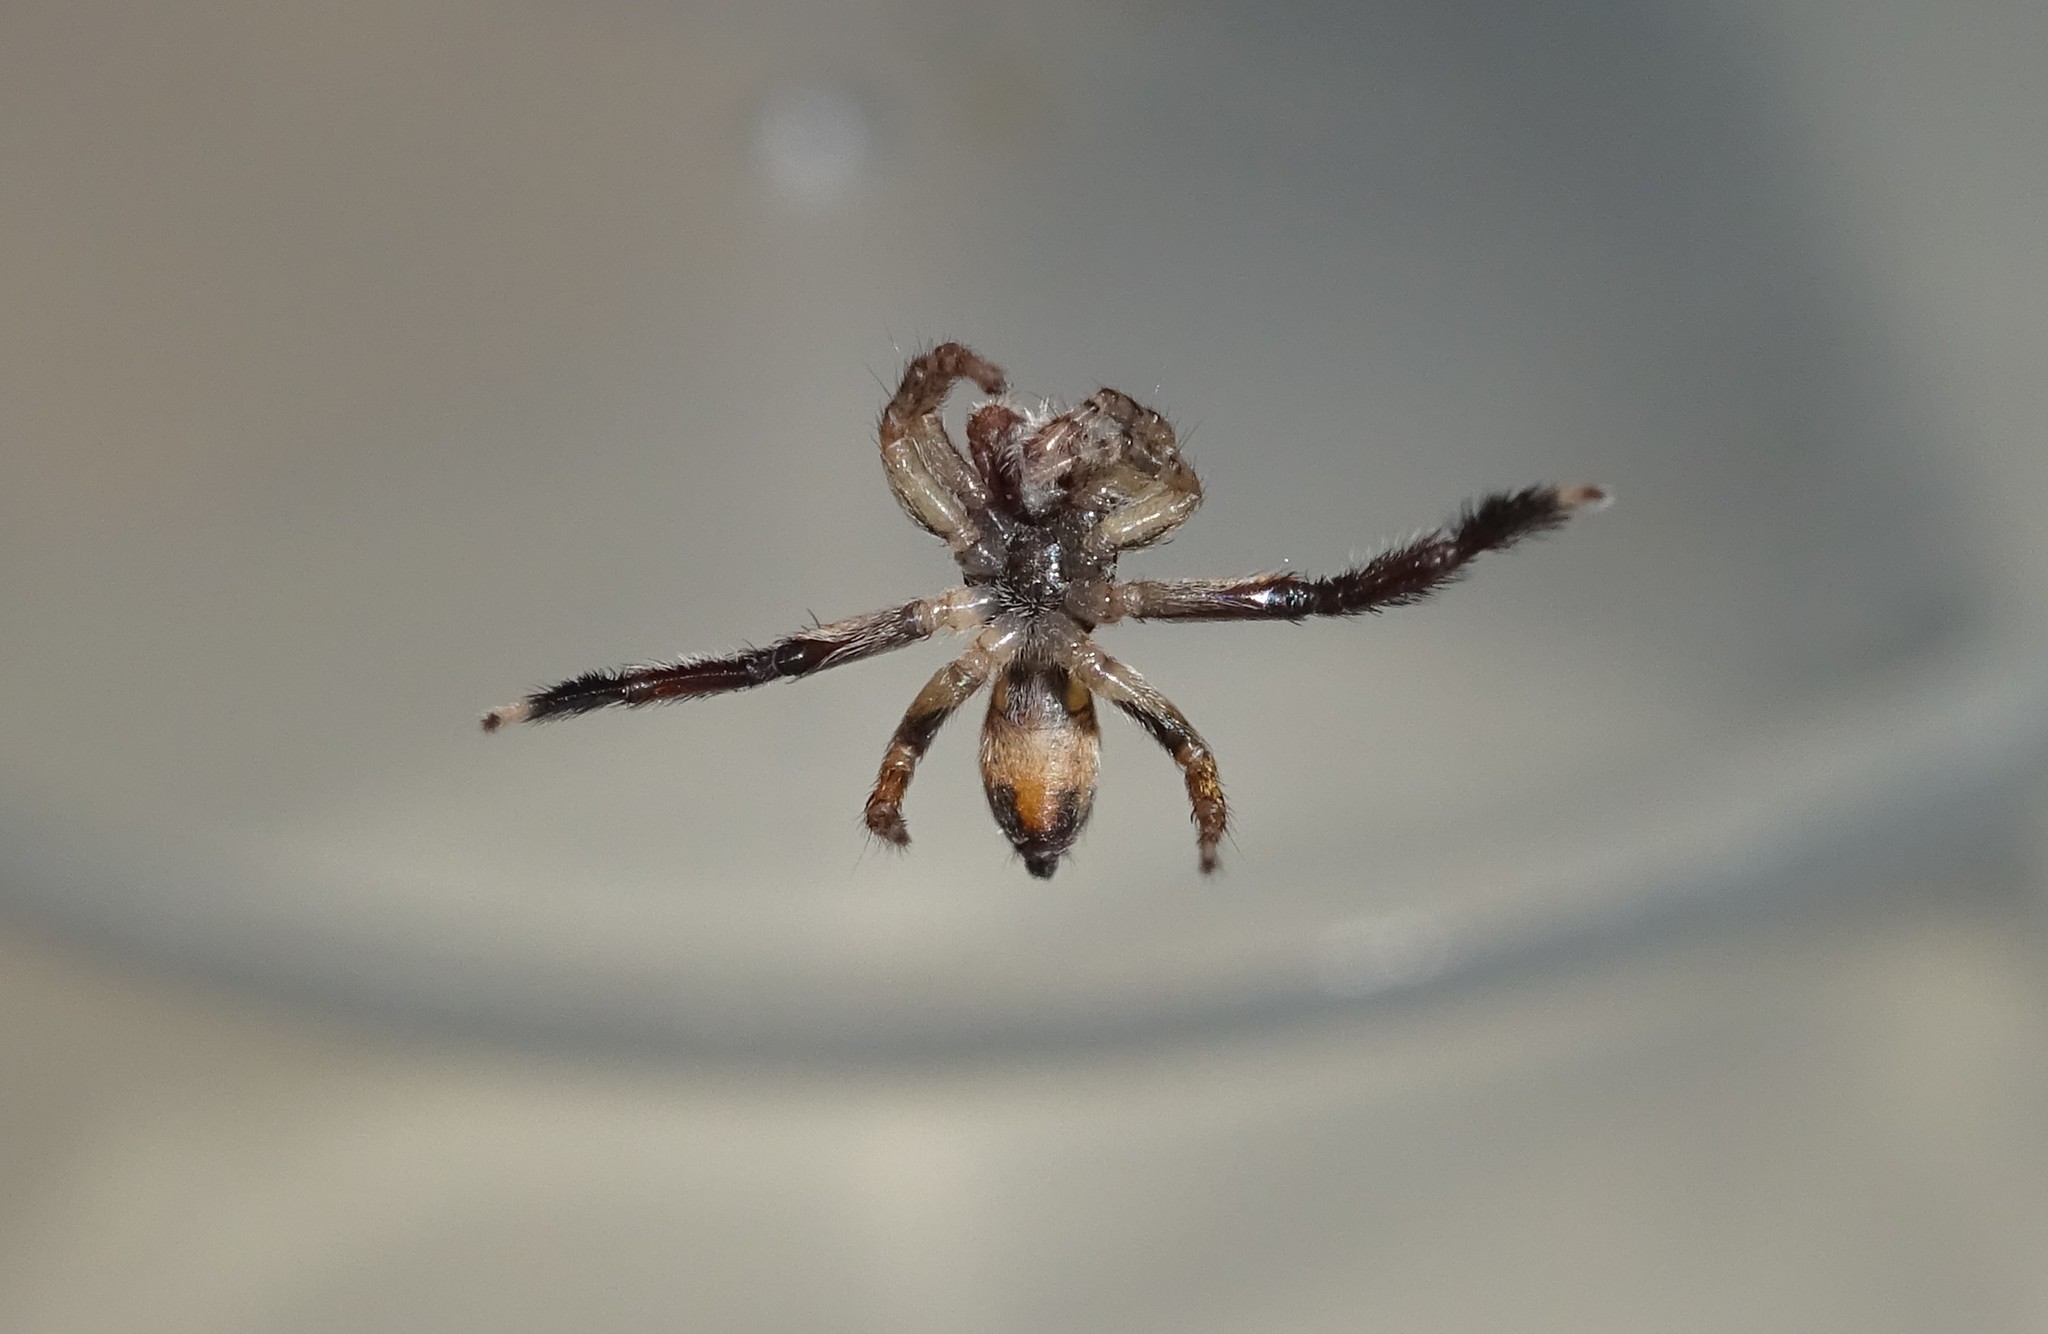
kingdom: Animalia
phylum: Arthropoda
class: Arachnida
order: Araneae
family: Salticidae
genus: Saitis
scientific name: Saitis barbipes
